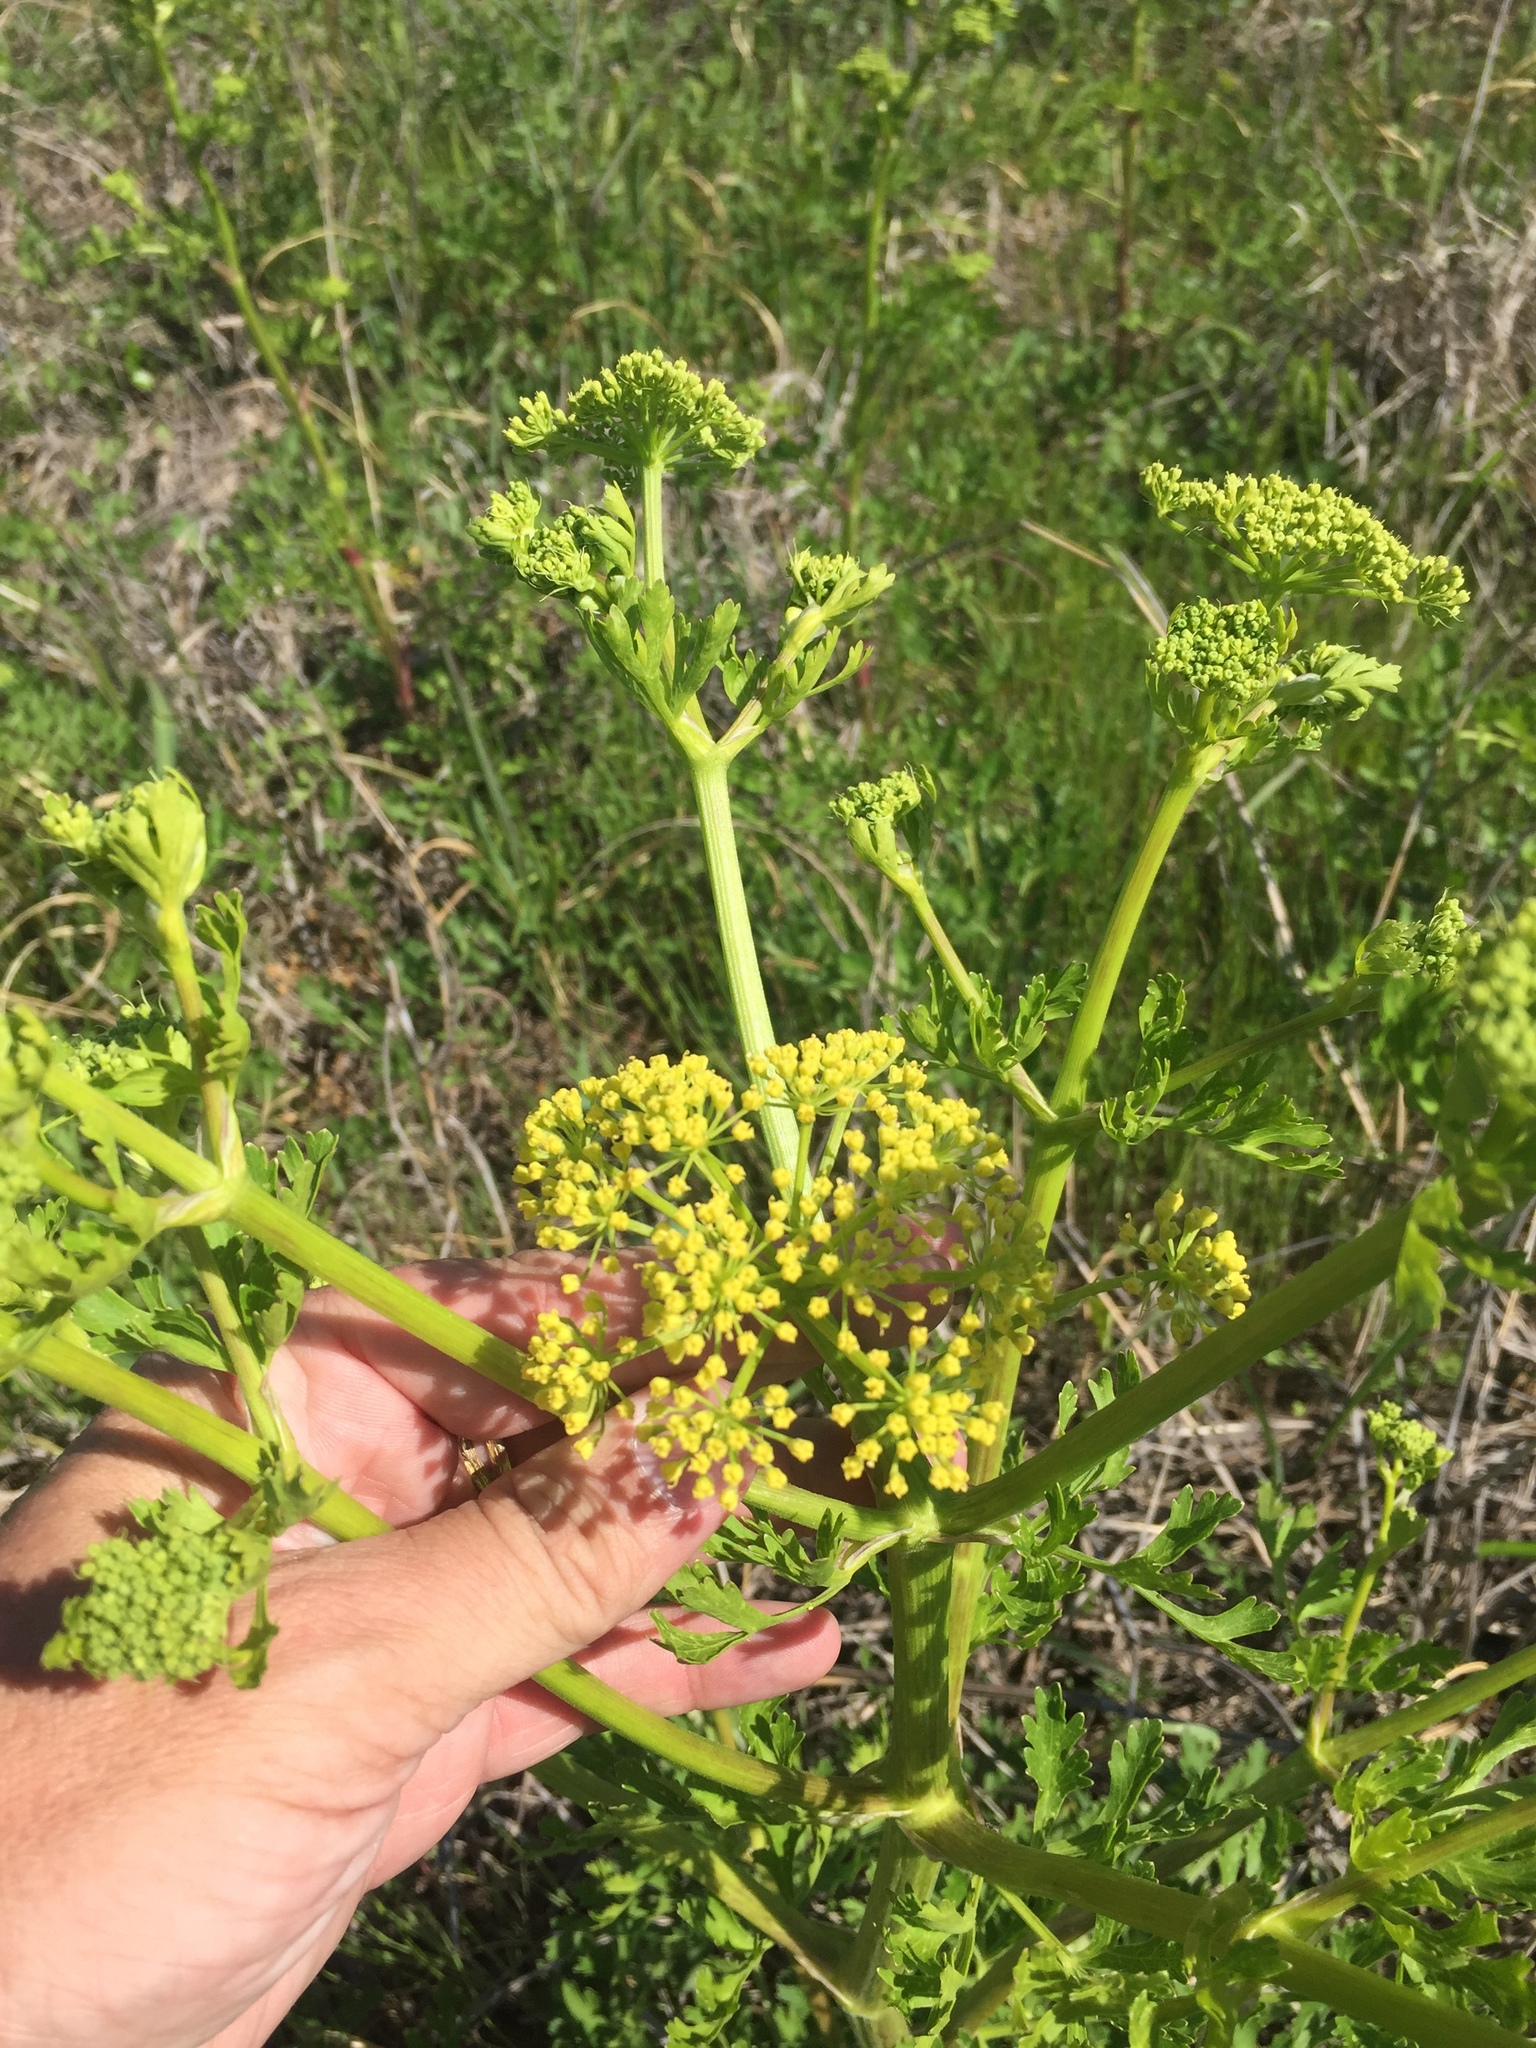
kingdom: Plantae
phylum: Tracheophyta
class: Magnoliopsida
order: Apiales
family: Apiaceae
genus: Polytaenia
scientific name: Polytaenia texana
